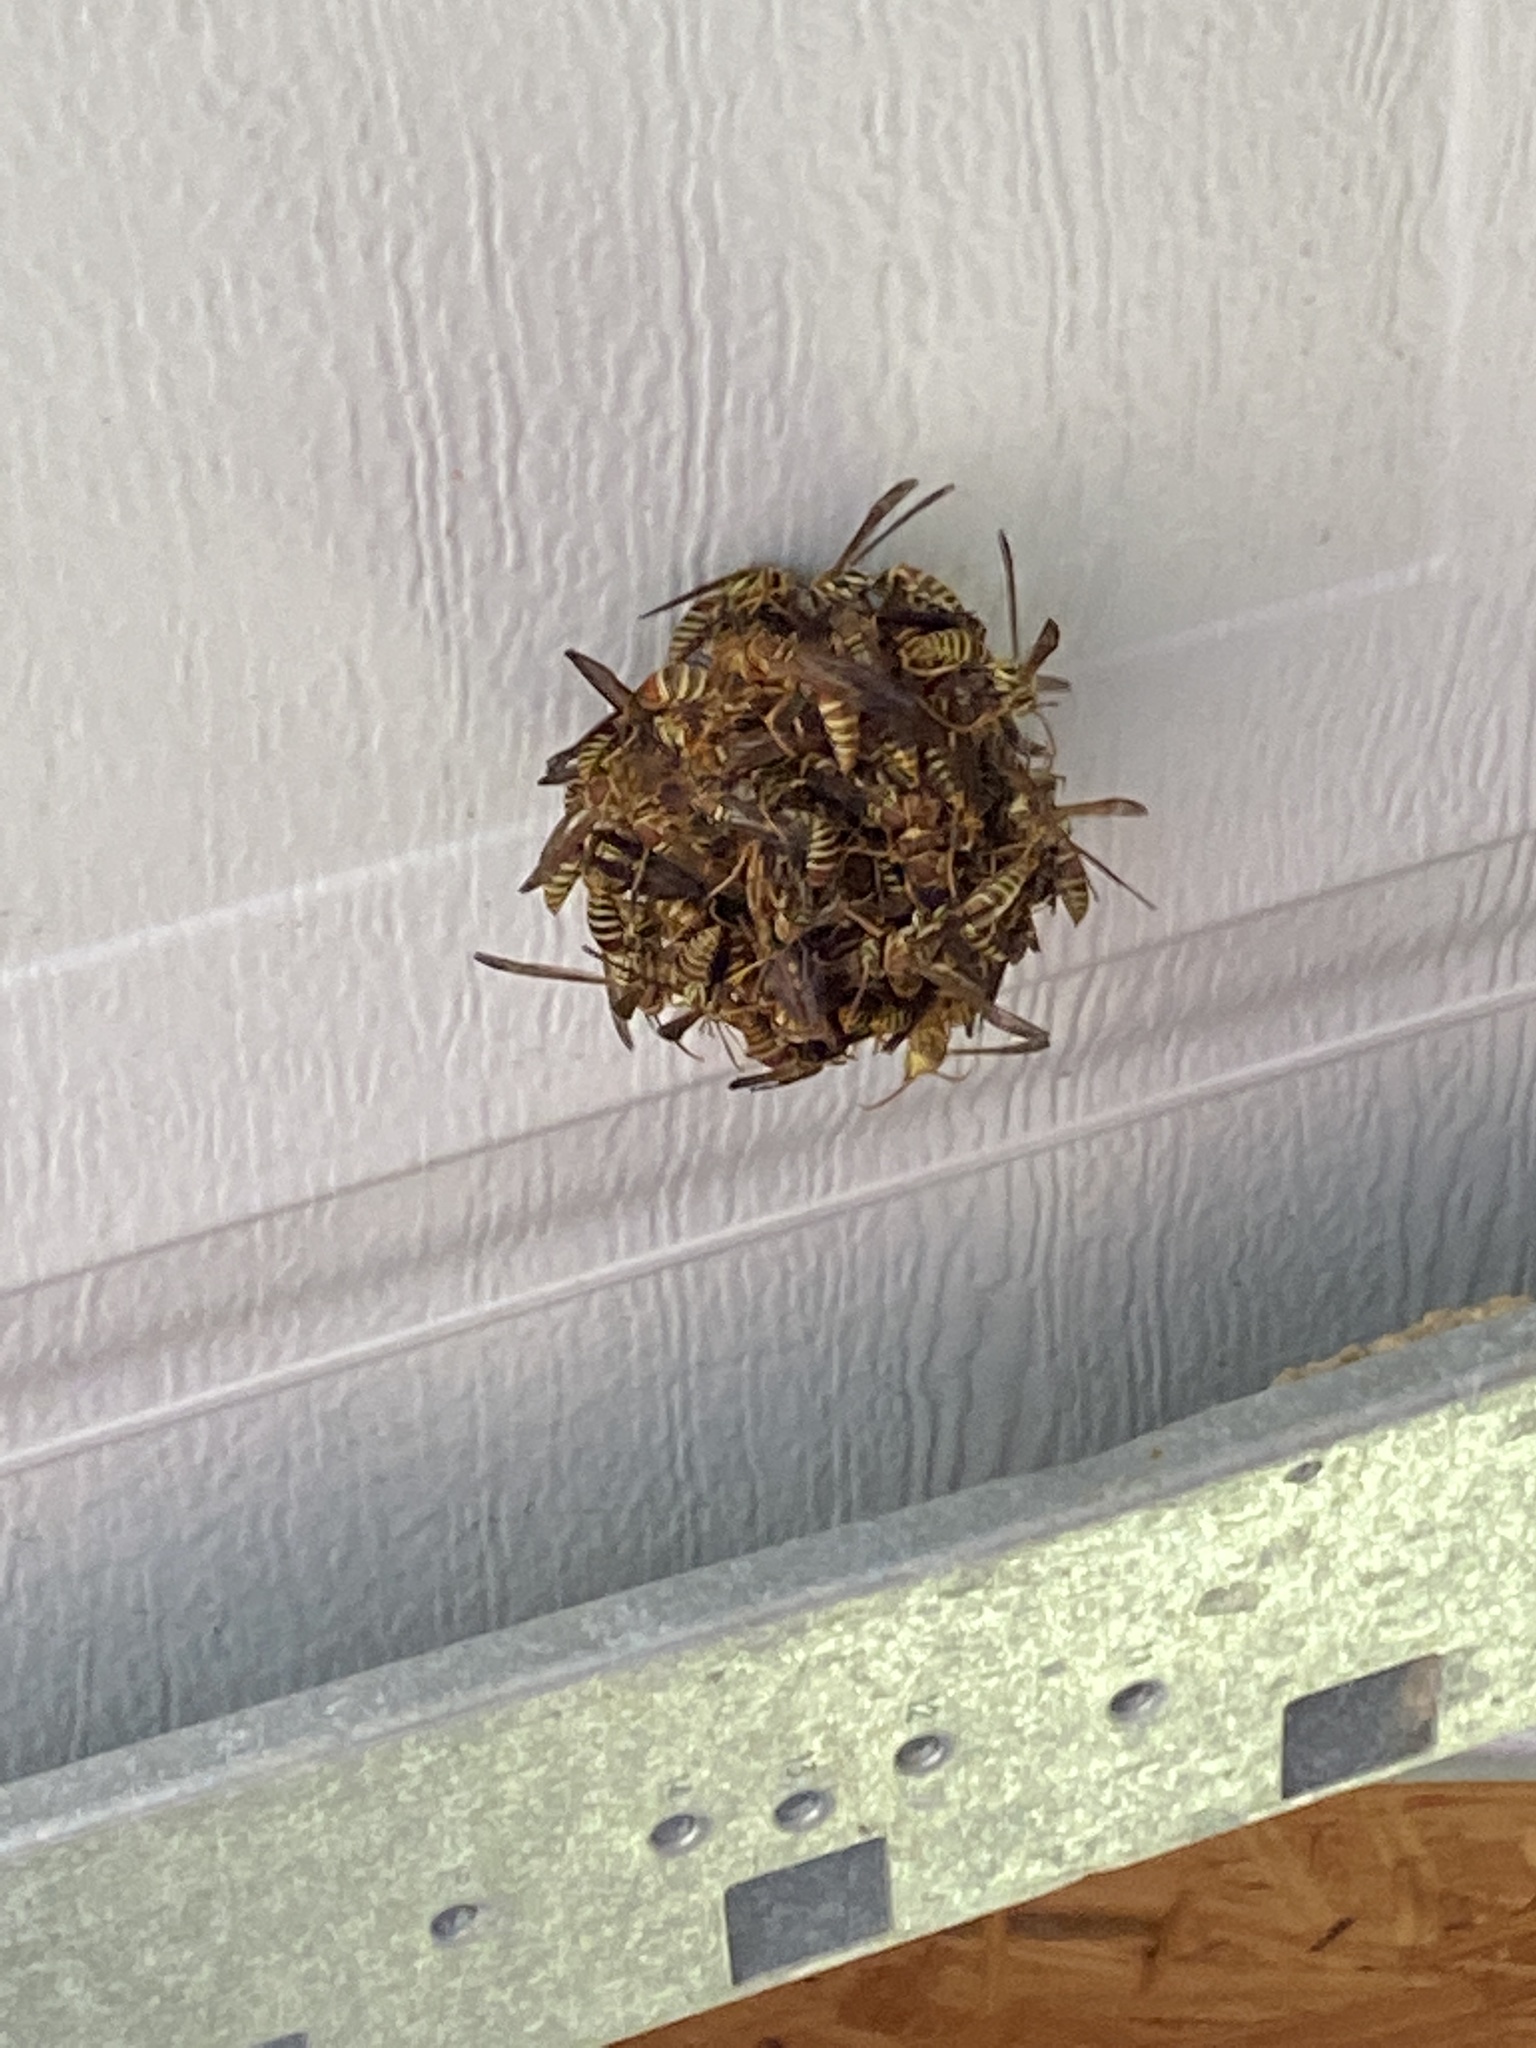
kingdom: Animalia
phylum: Arthropoda
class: Insecta
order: Hymenoptera
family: Eumenidae
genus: Polistes
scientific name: Polistes exclamans
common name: Paper wasp
